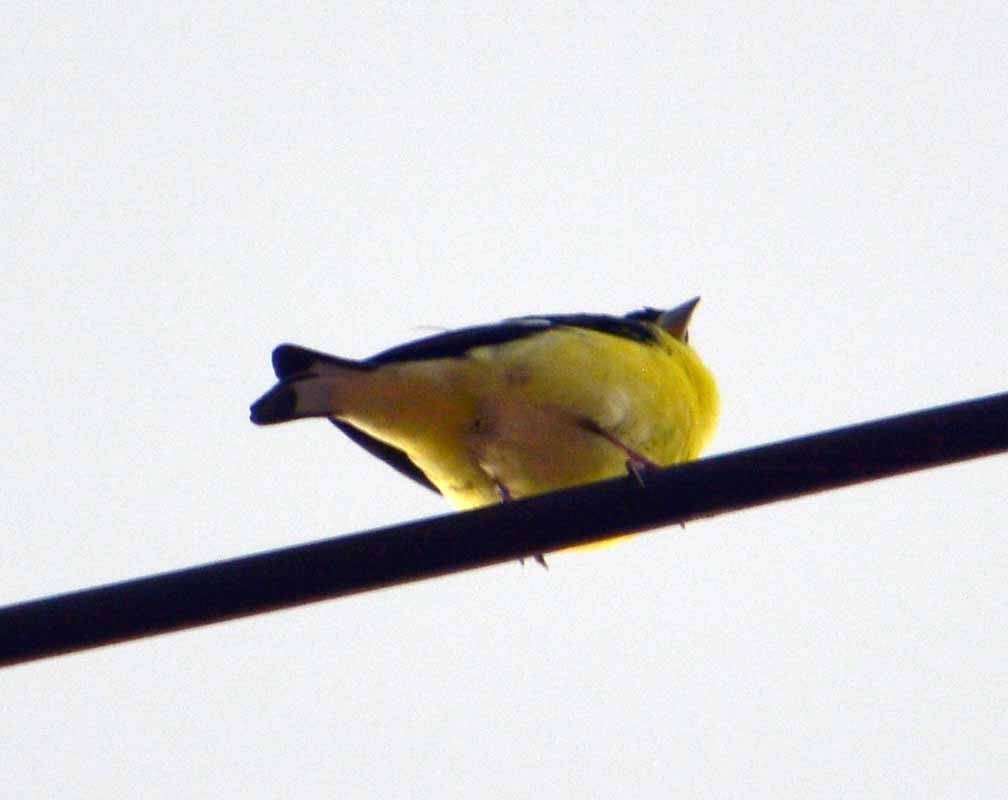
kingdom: Animalia
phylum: Chordata
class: Aves
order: Passeriformes
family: Fringillidae
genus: Spinus
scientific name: Spinus psaltria
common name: Lesser goldfinch
